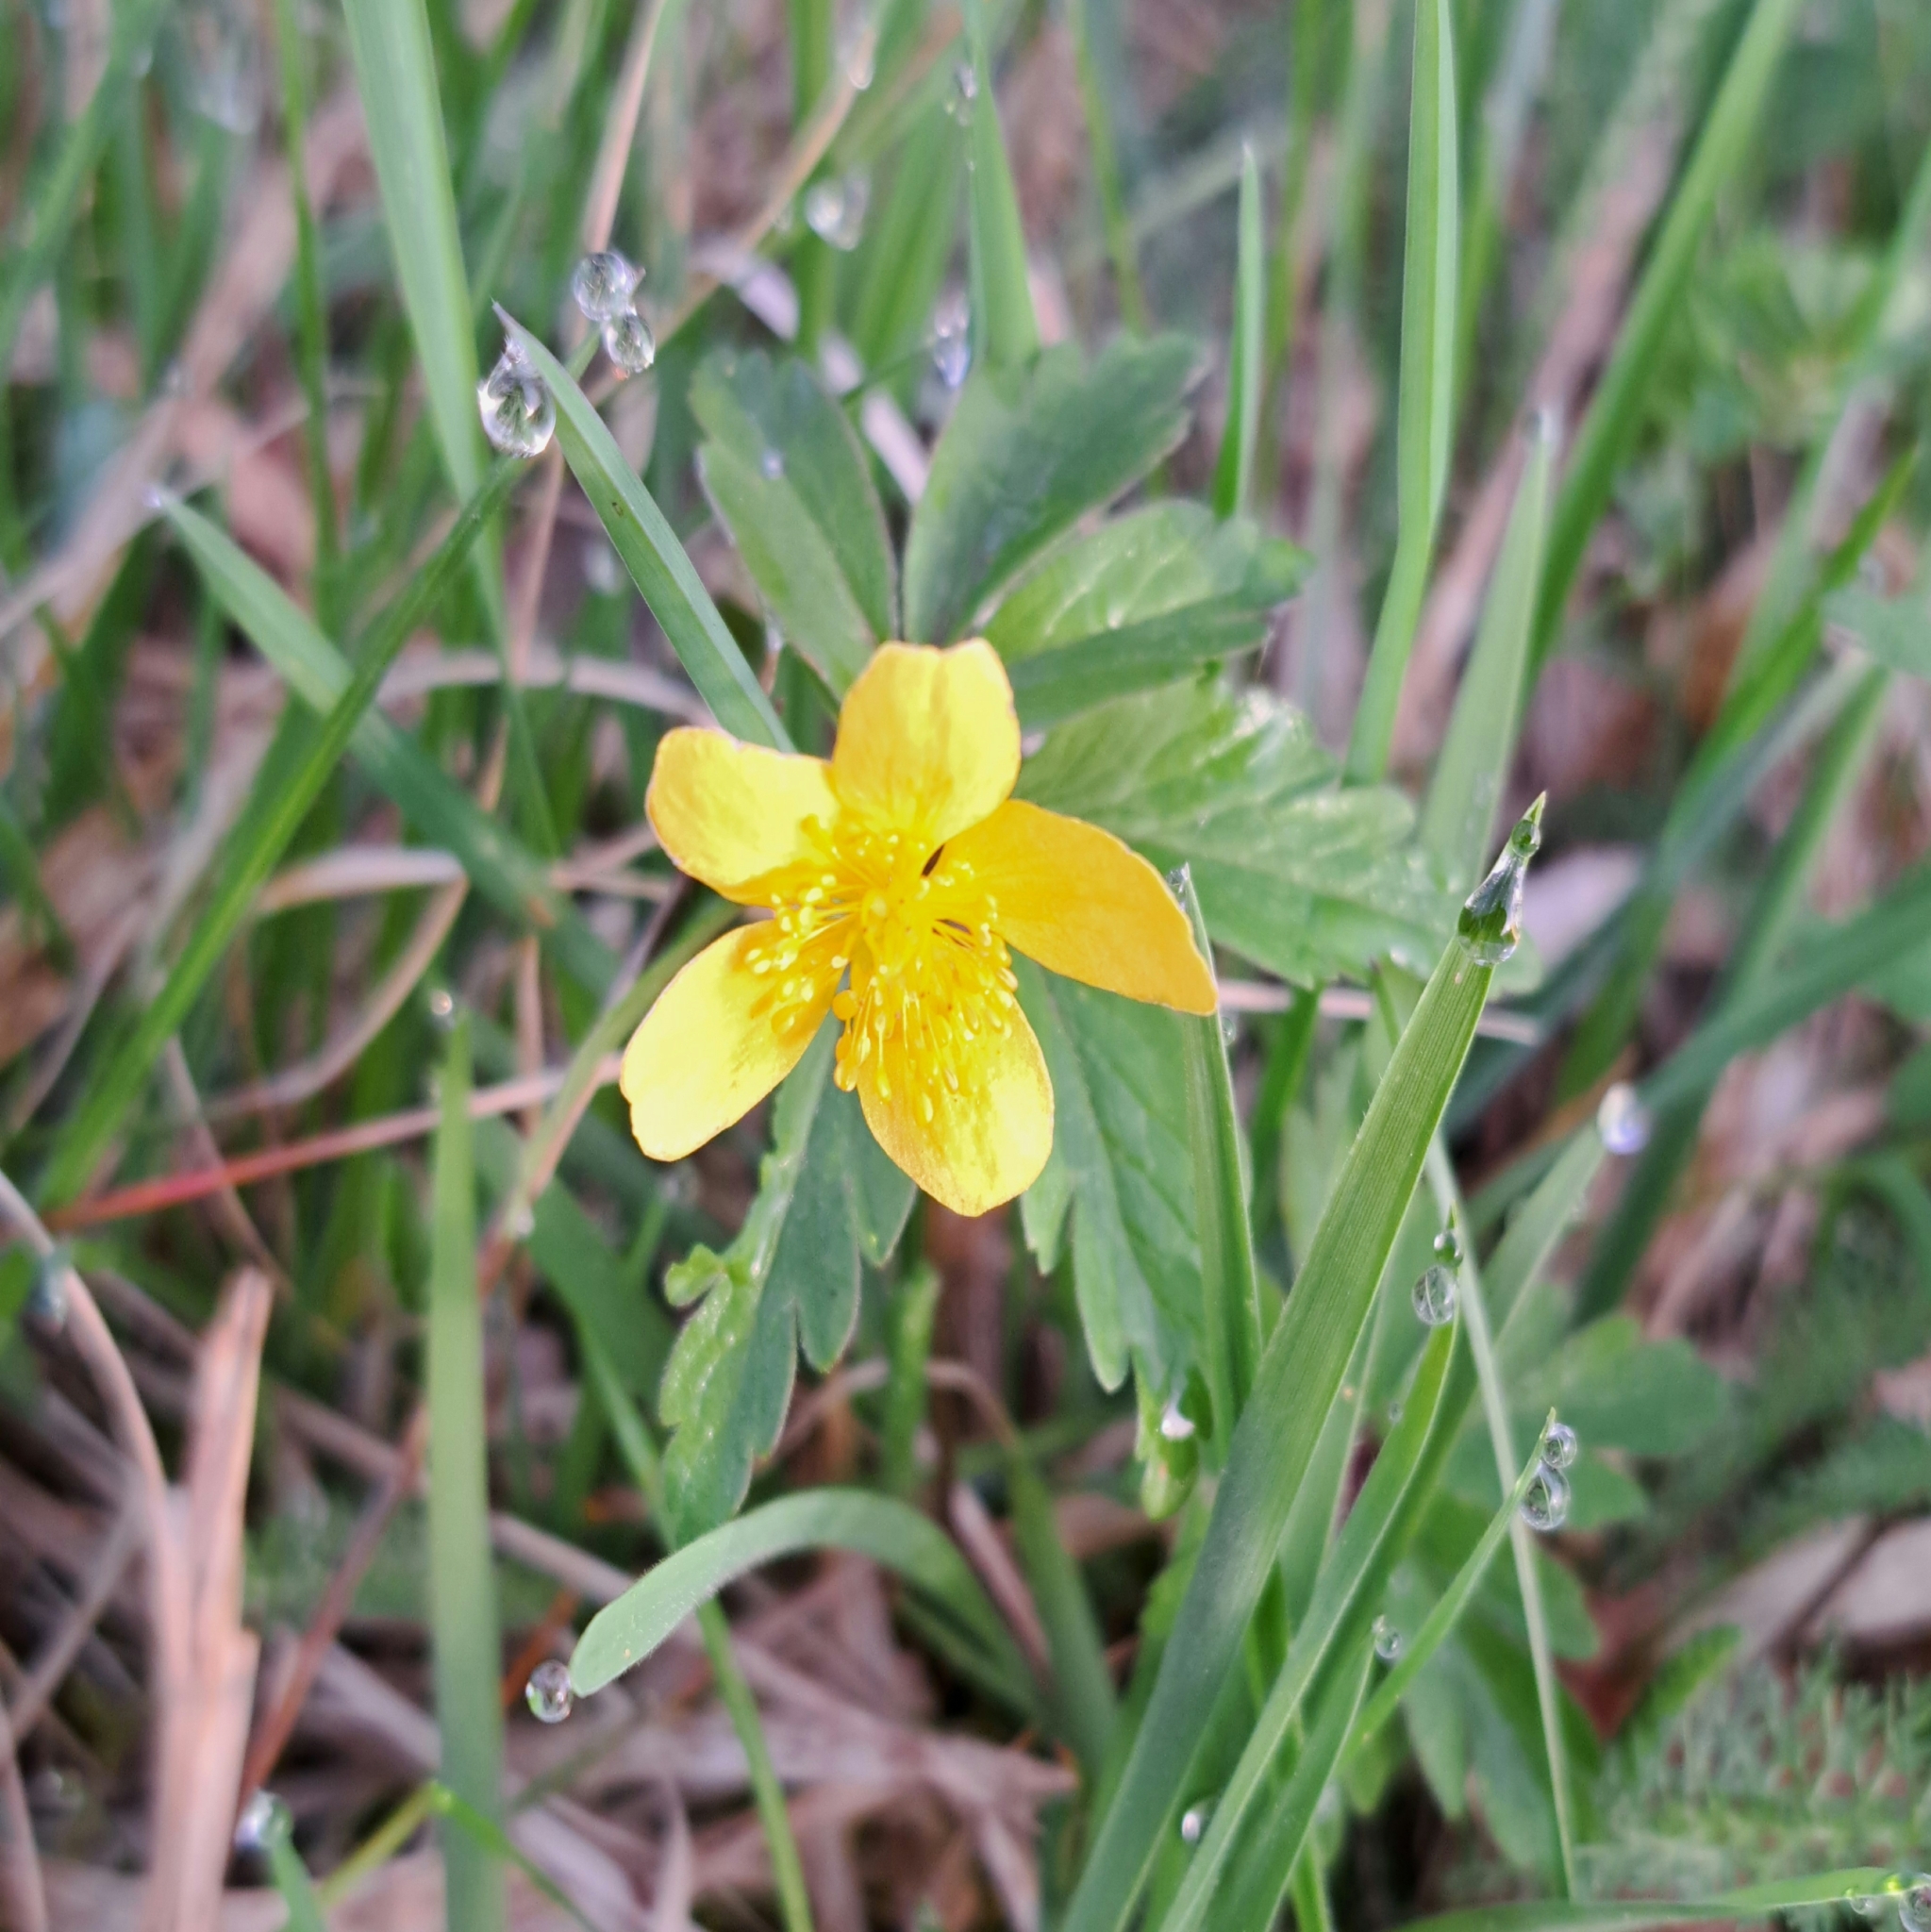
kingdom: Plantae
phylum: Tracheophyta
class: Magnoliopsida
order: Ranunculales
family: Ranunculaceae
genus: Anemone
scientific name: Anemone ranunculoides
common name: Yellow anemone
